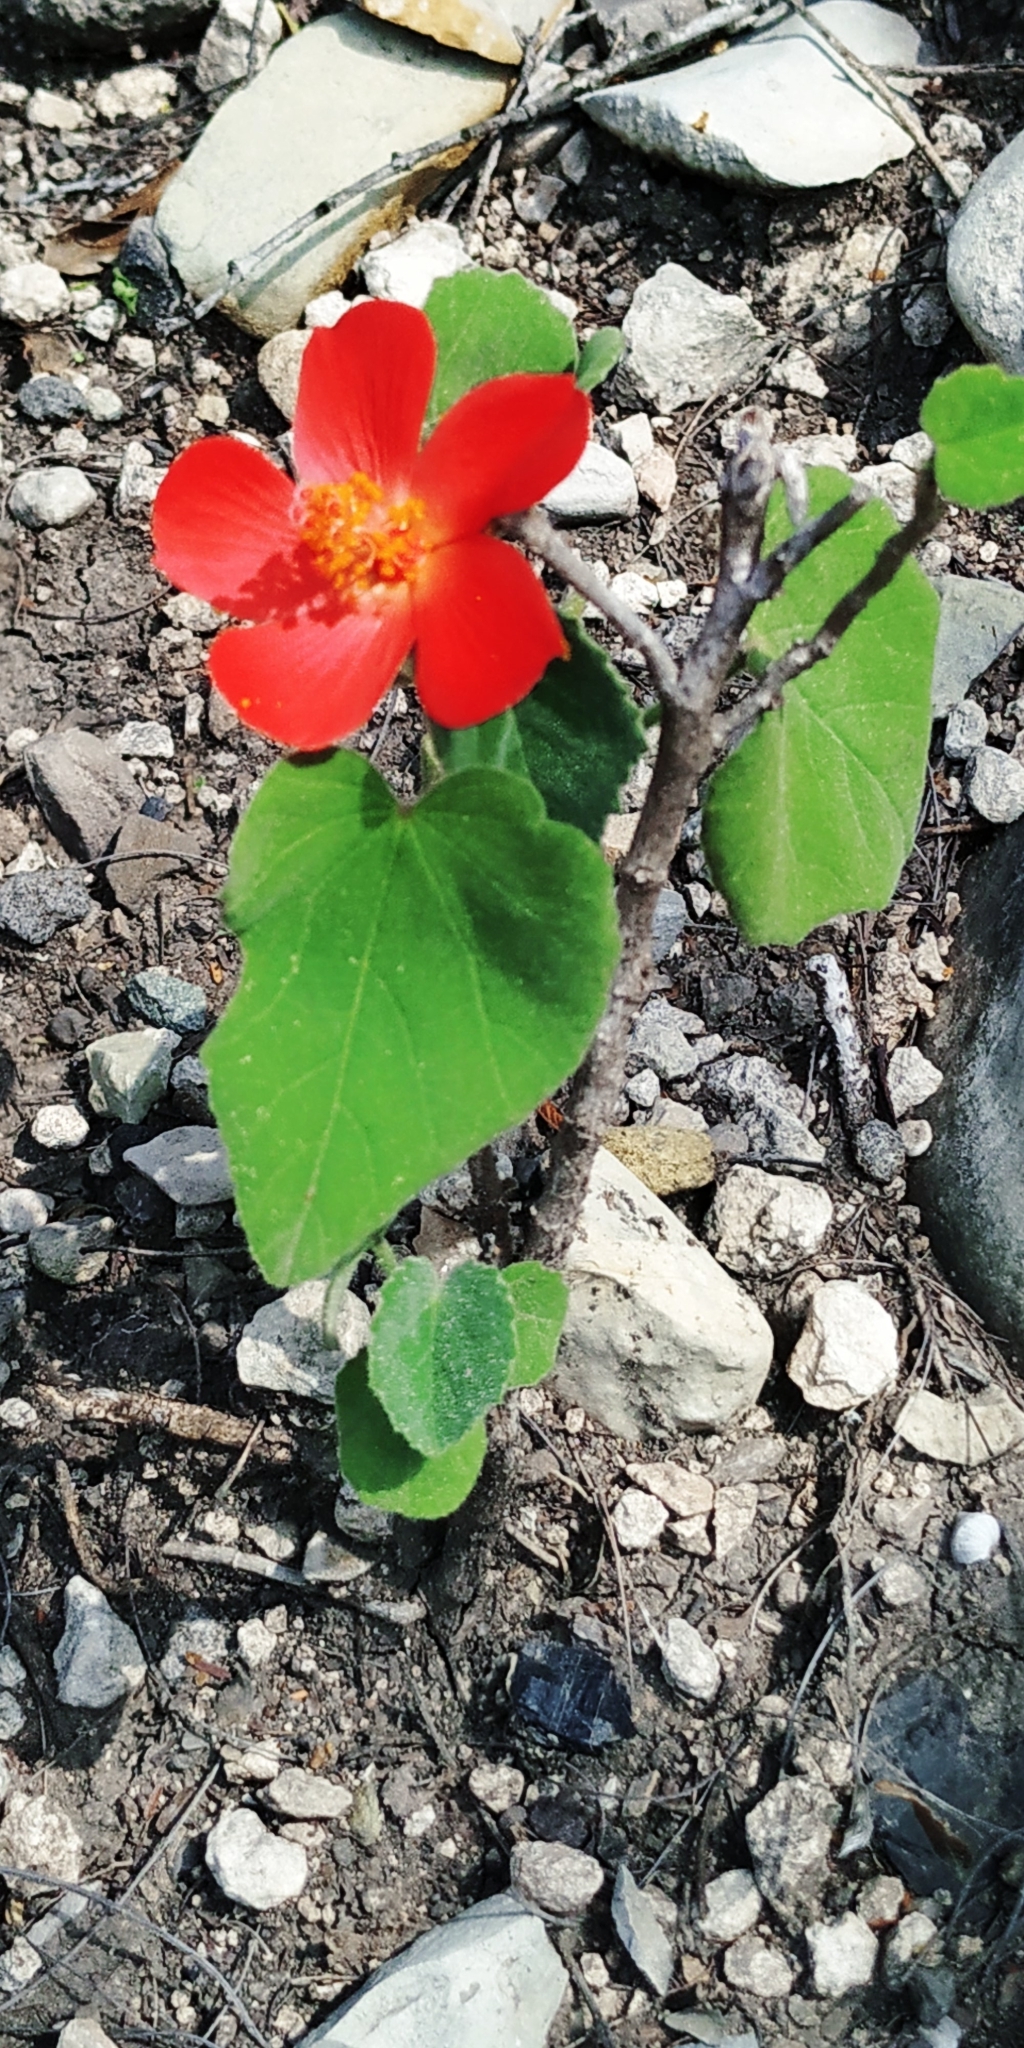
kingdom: Plantae
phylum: Tracheophyta
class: Magnoliopsida
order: Malvales
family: Malvaceae
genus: Hibiscus
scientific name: Hibiscus martianus
